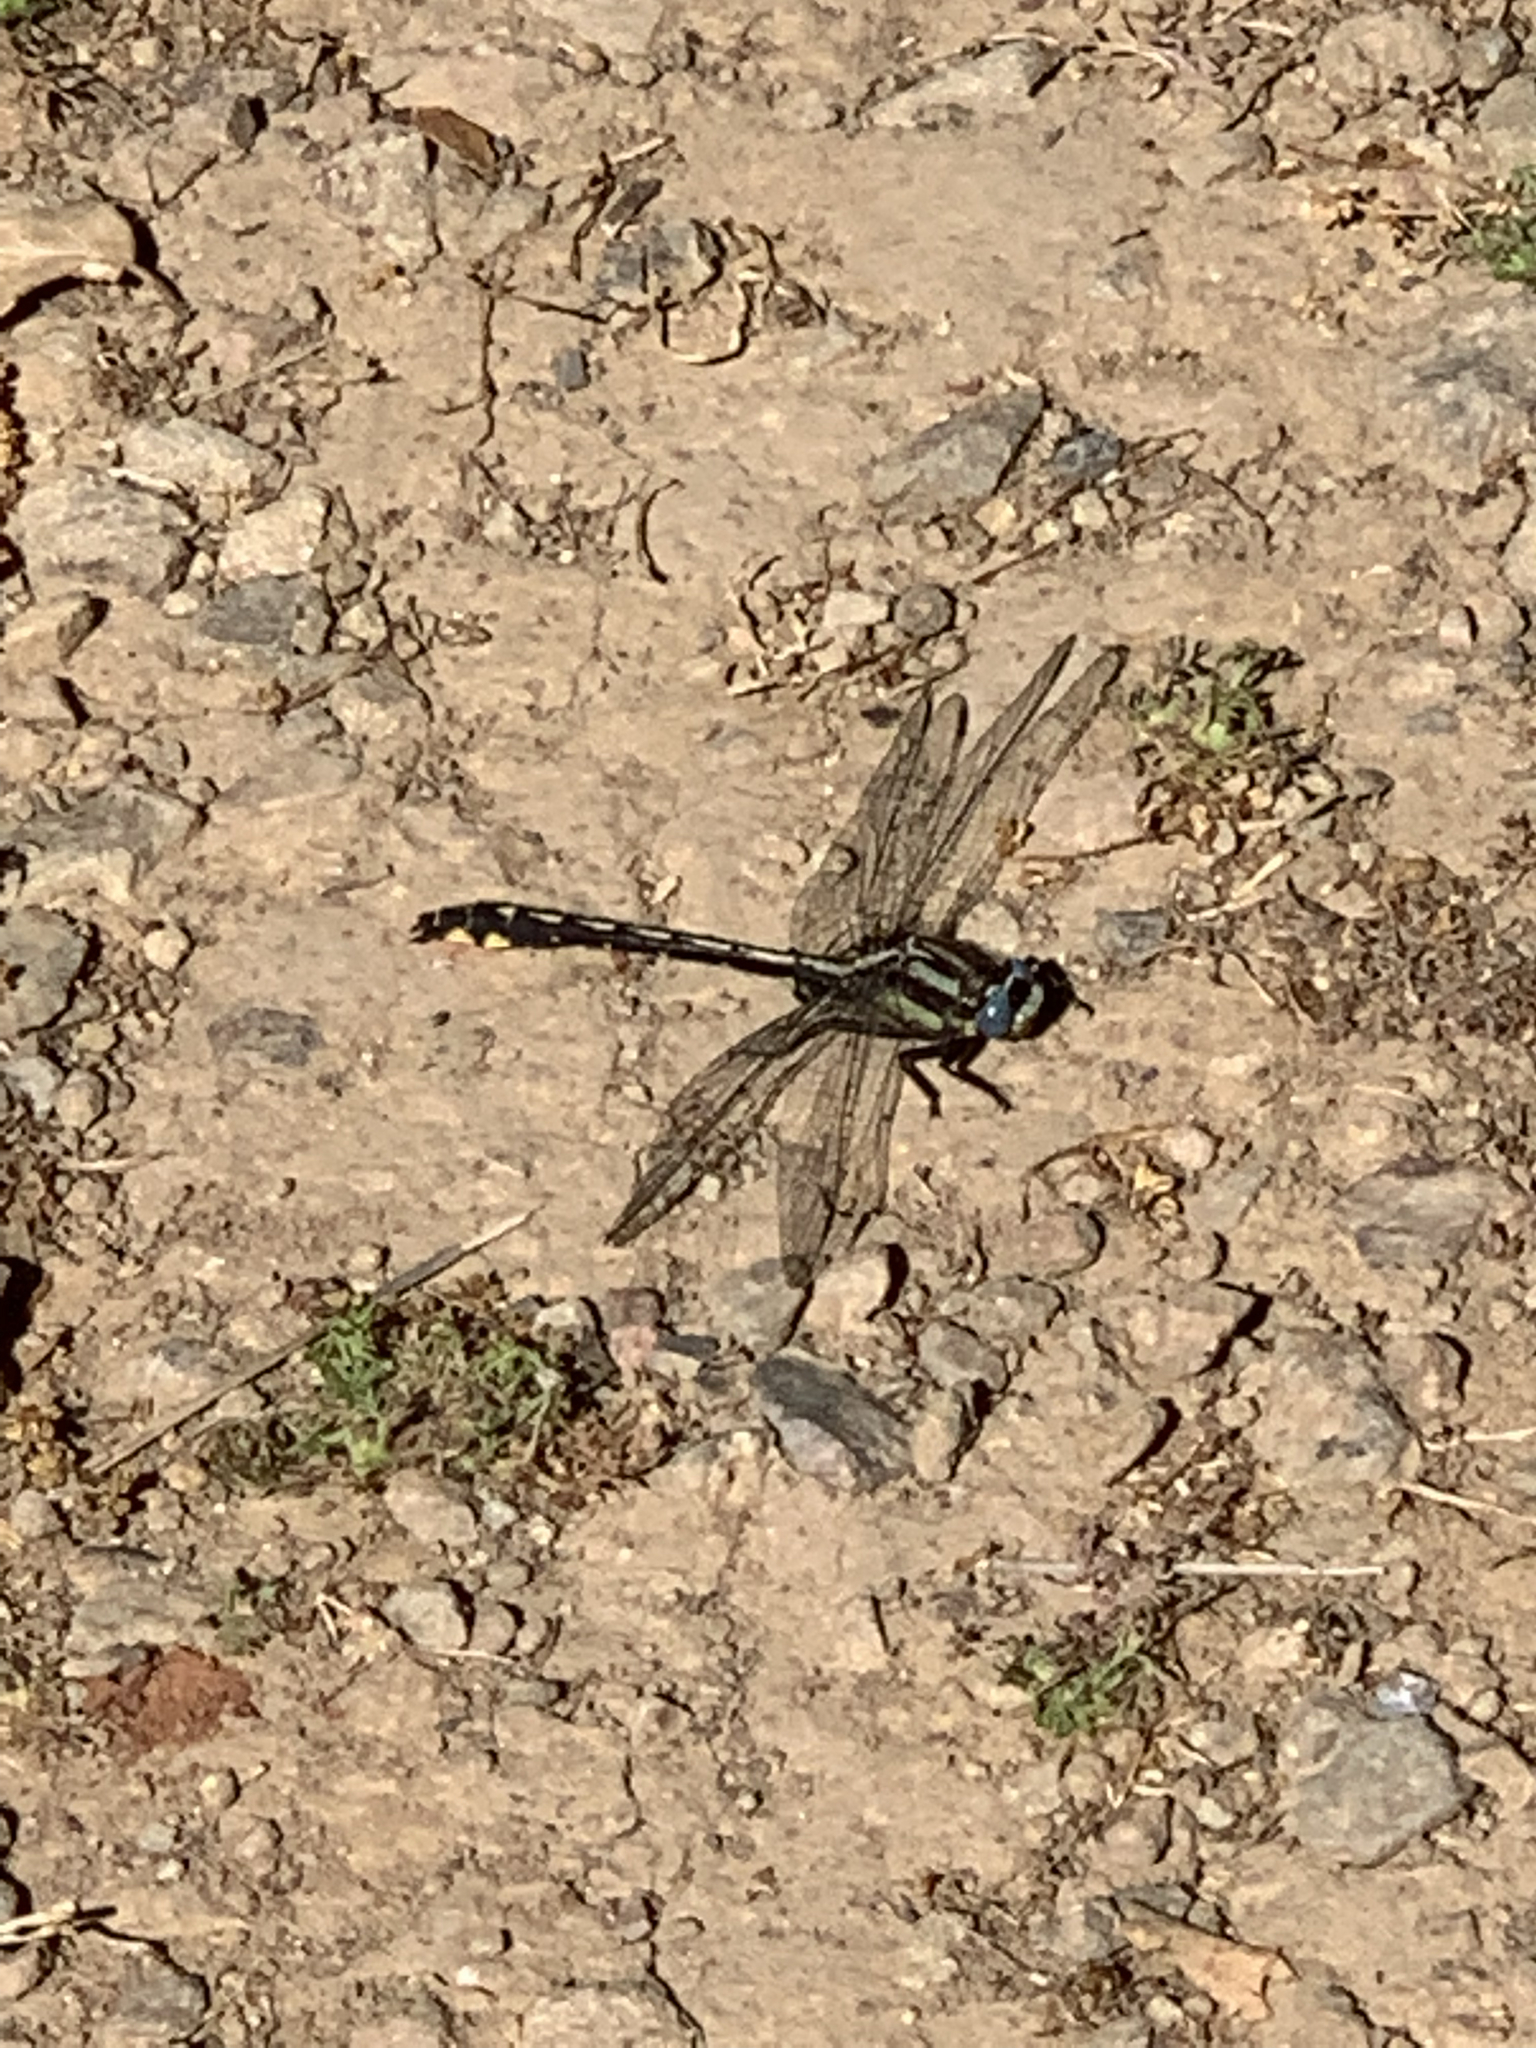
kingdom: Animalia
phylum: Arthropoda
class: Insecta
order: Odonata
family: Gomphidae
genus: Phanogomphus
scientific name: Phanogomphus kurilis
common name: Pacific clubtail
